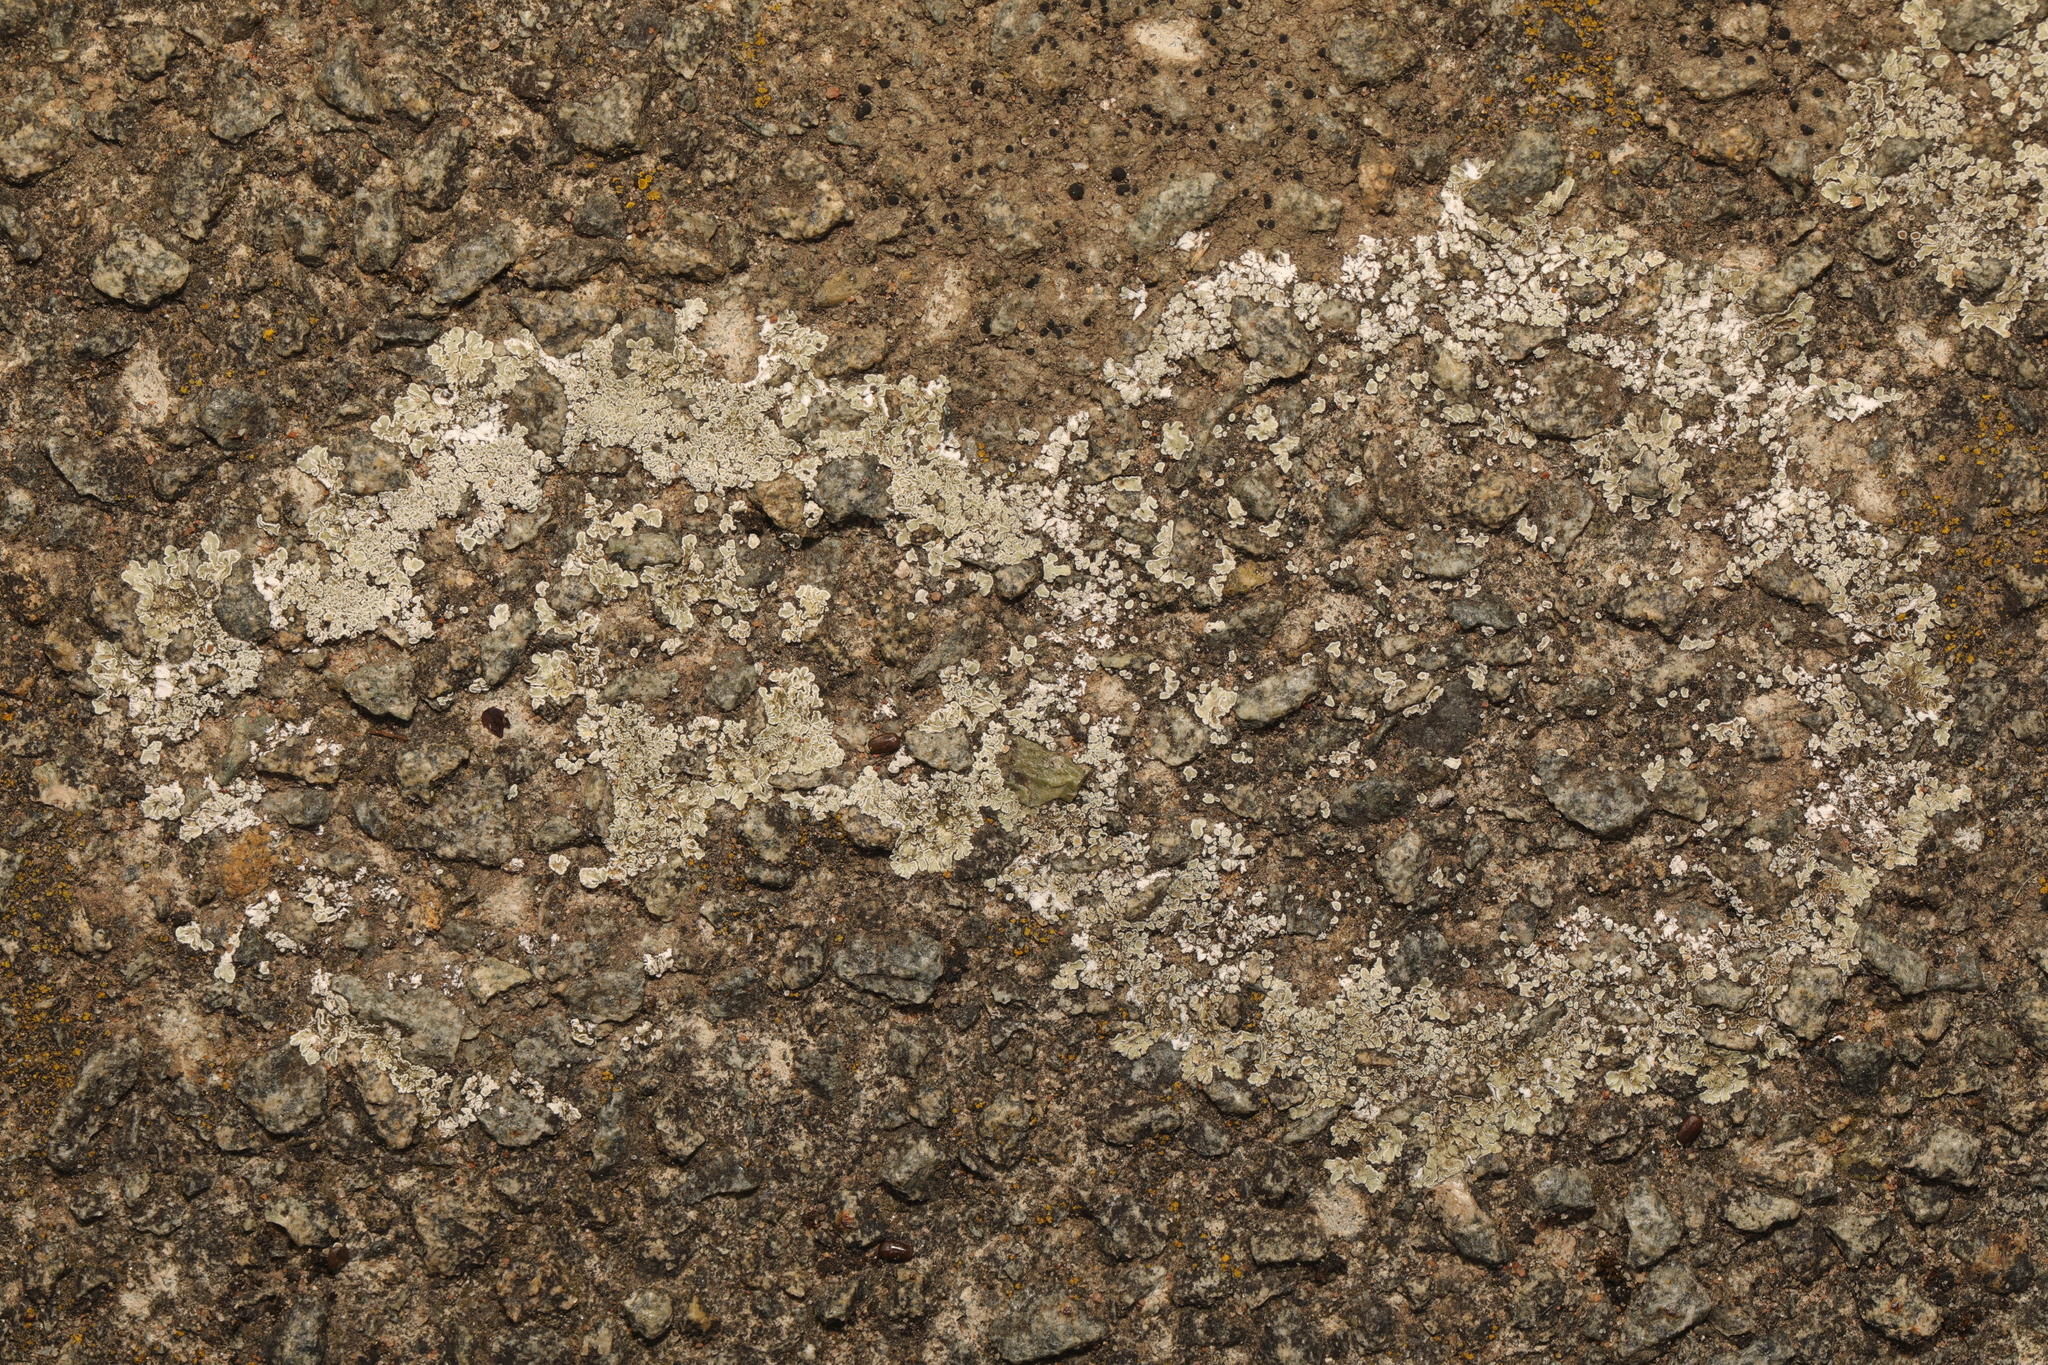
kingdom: Fungi
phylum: Ascomycota
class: Lecanoromycetes
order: Lecanorales
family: Lecanoraceae
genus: Protoparmeliopsis
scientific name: Protoparmeliopsis muralis
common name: Stonewall rim lichen
